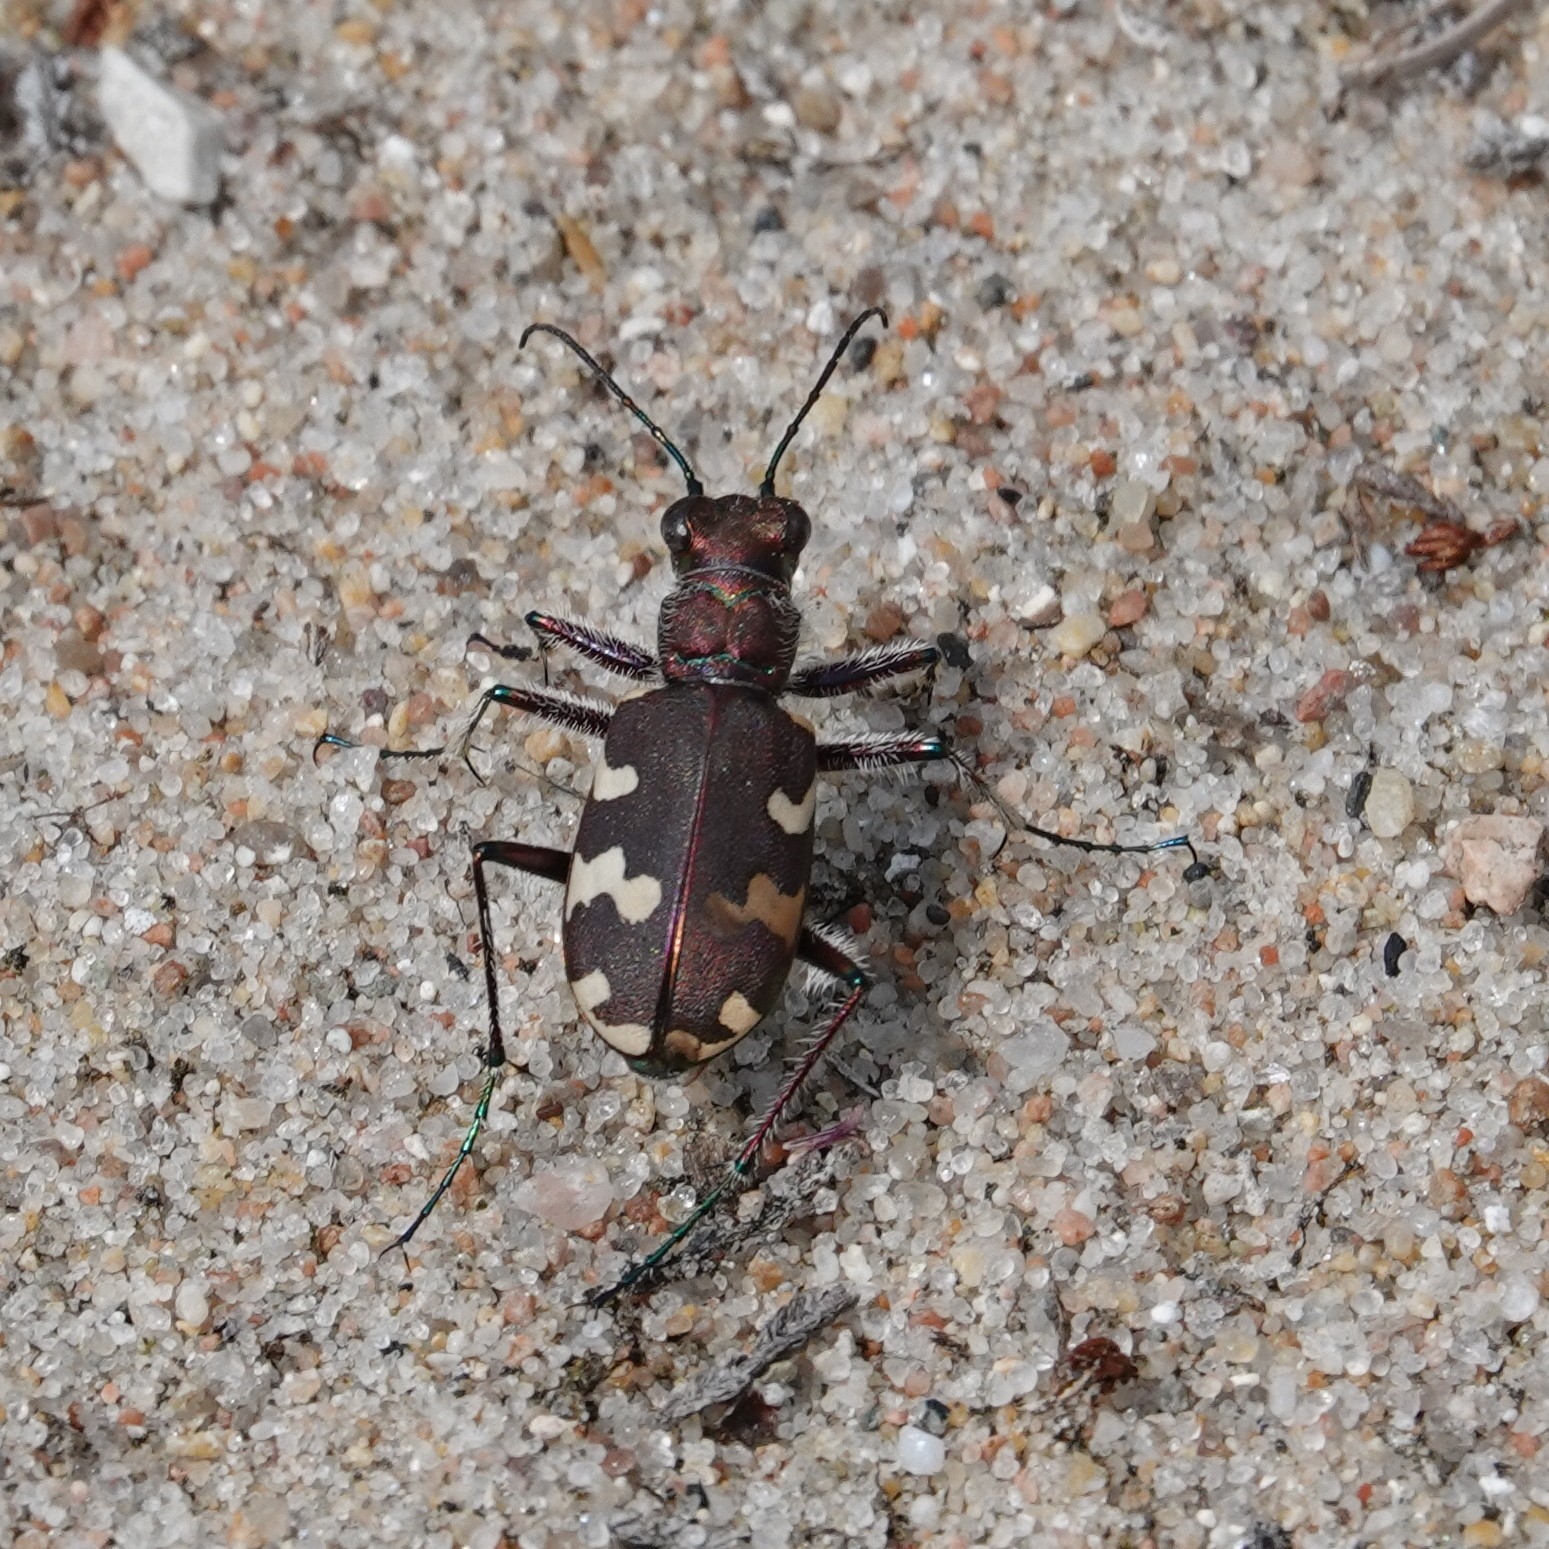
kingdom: Animalia
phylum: Arthropoda
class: Insecta
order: Coleoptera
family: Carabidae
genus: Cicindela
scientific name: Cicindela hybrida
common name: Northern dune tiger beetle
